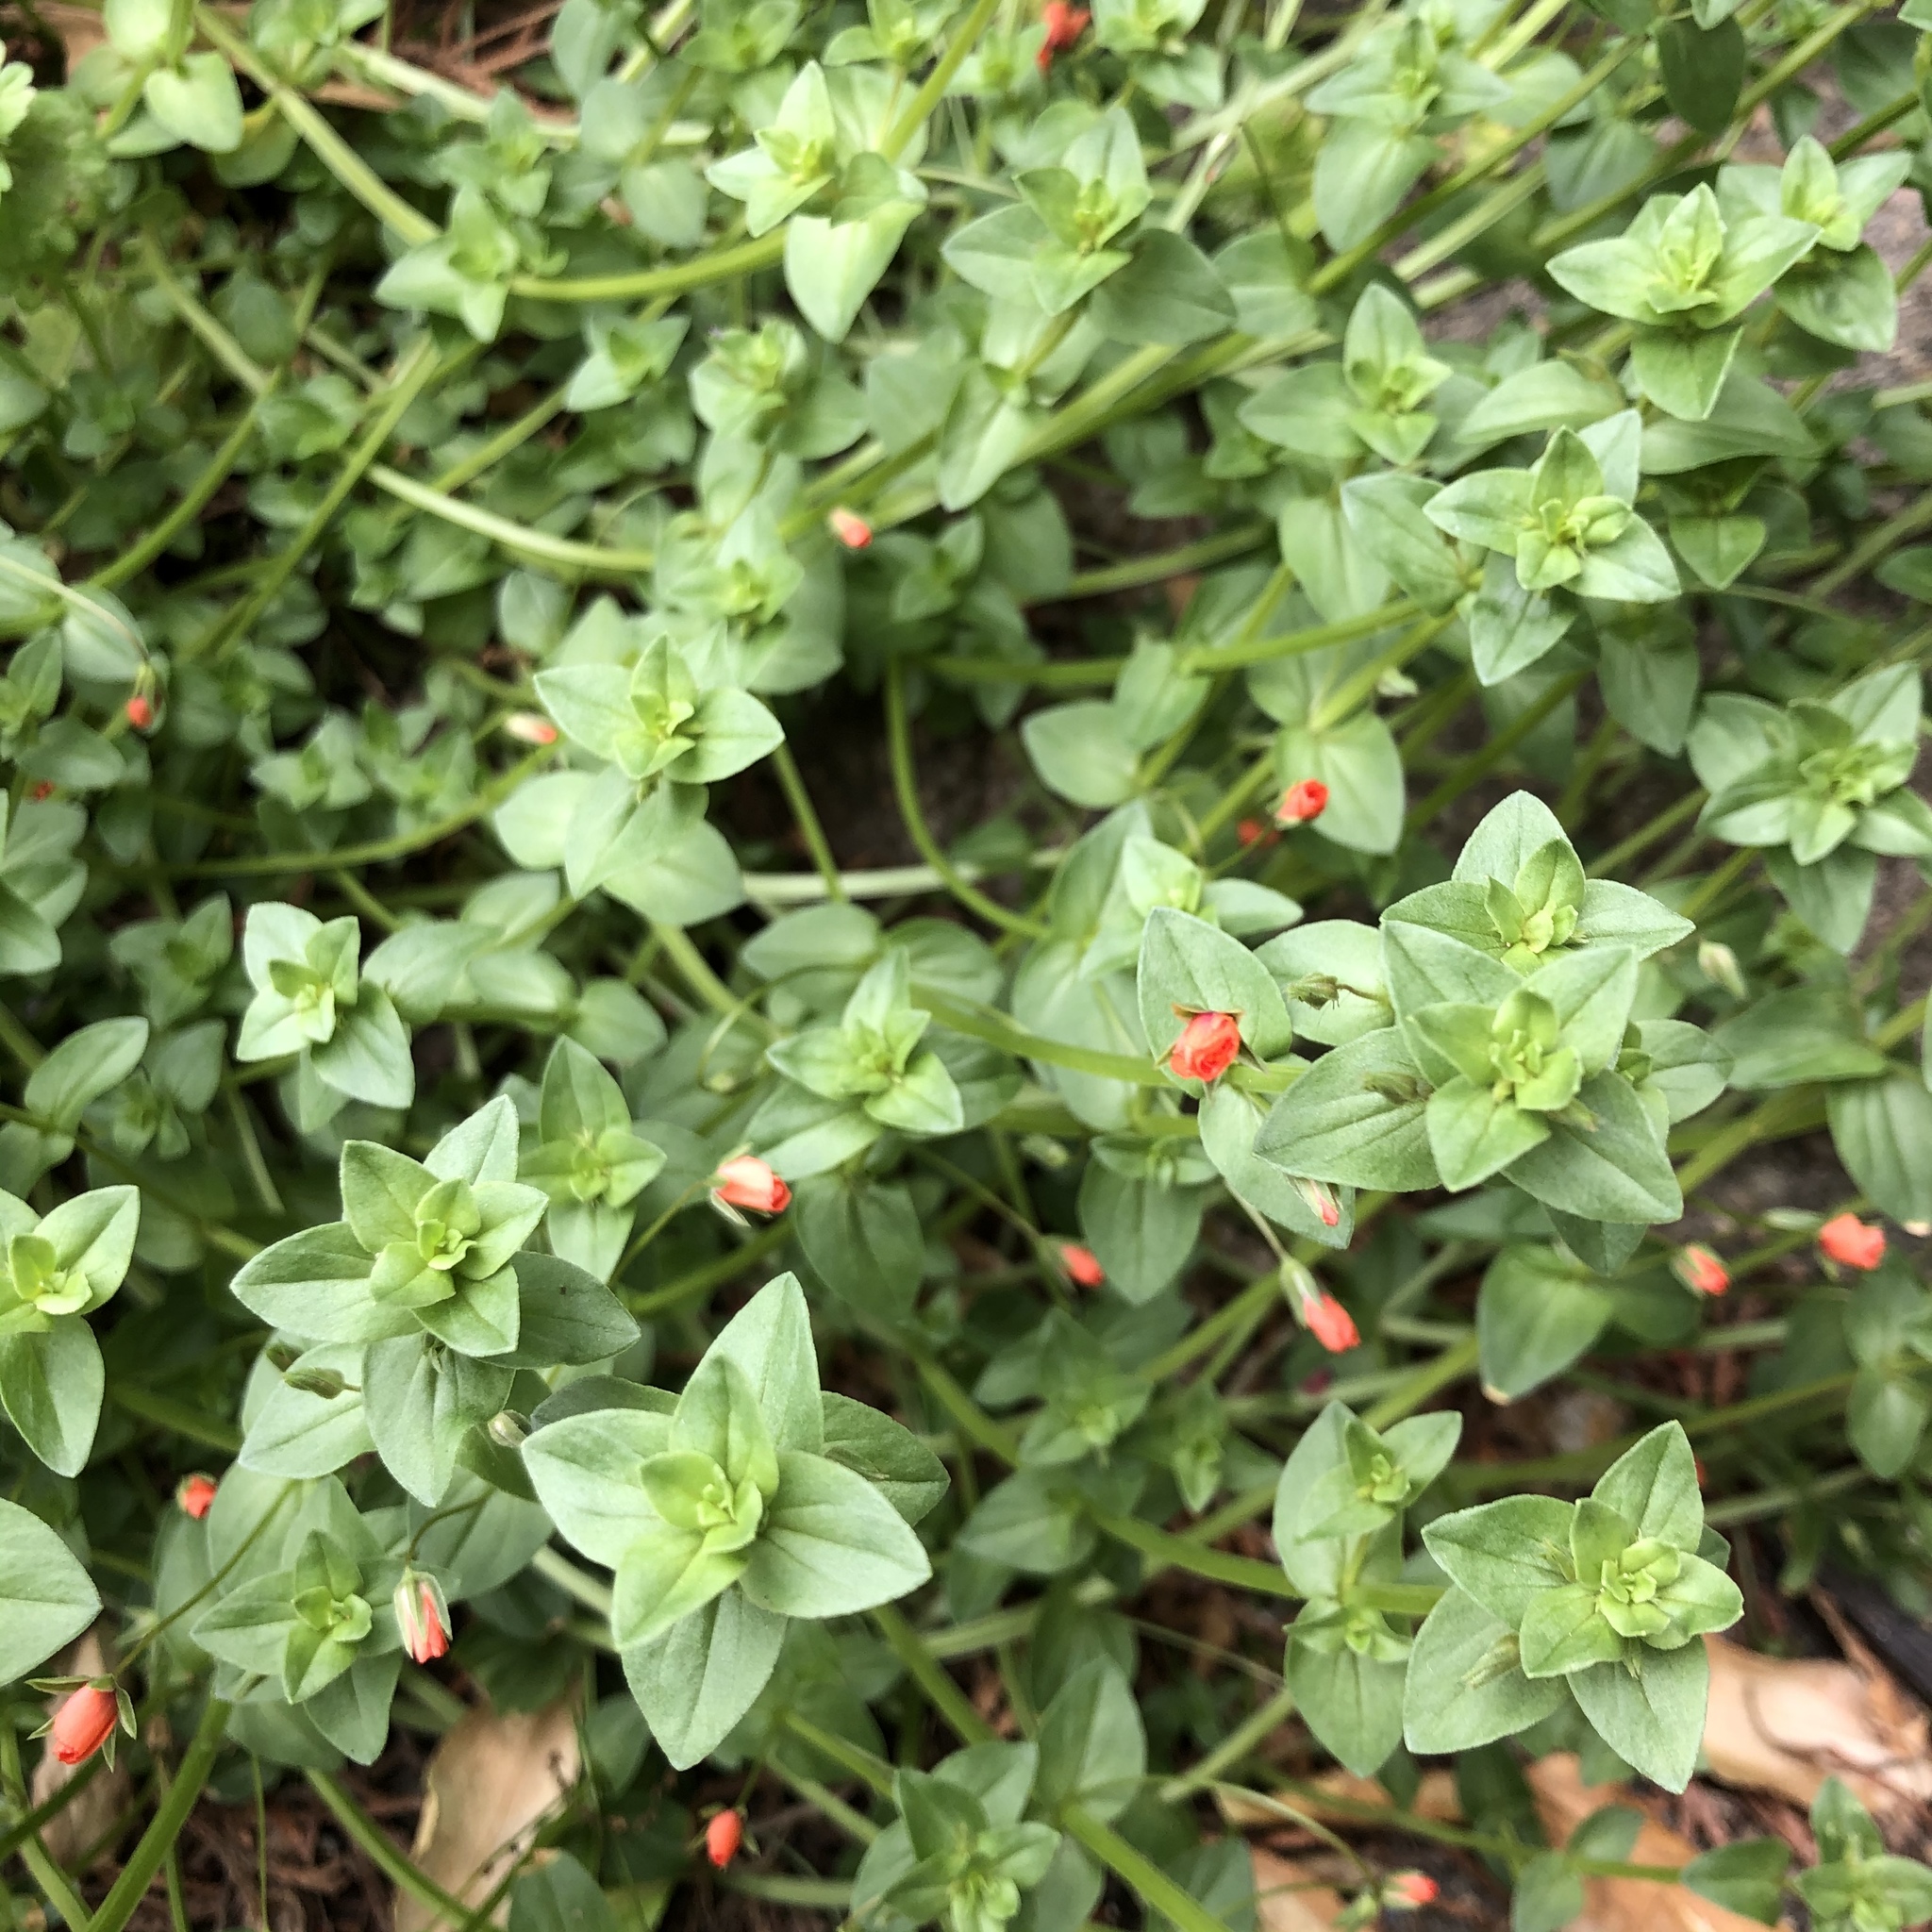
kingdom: Plantae
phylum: Tracheophyta
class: Magnoliopsida
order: Ericales
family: Primulaceae
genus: Lysimachia
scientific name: Lysimachia arvensis
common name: Scarlet pimpernel
